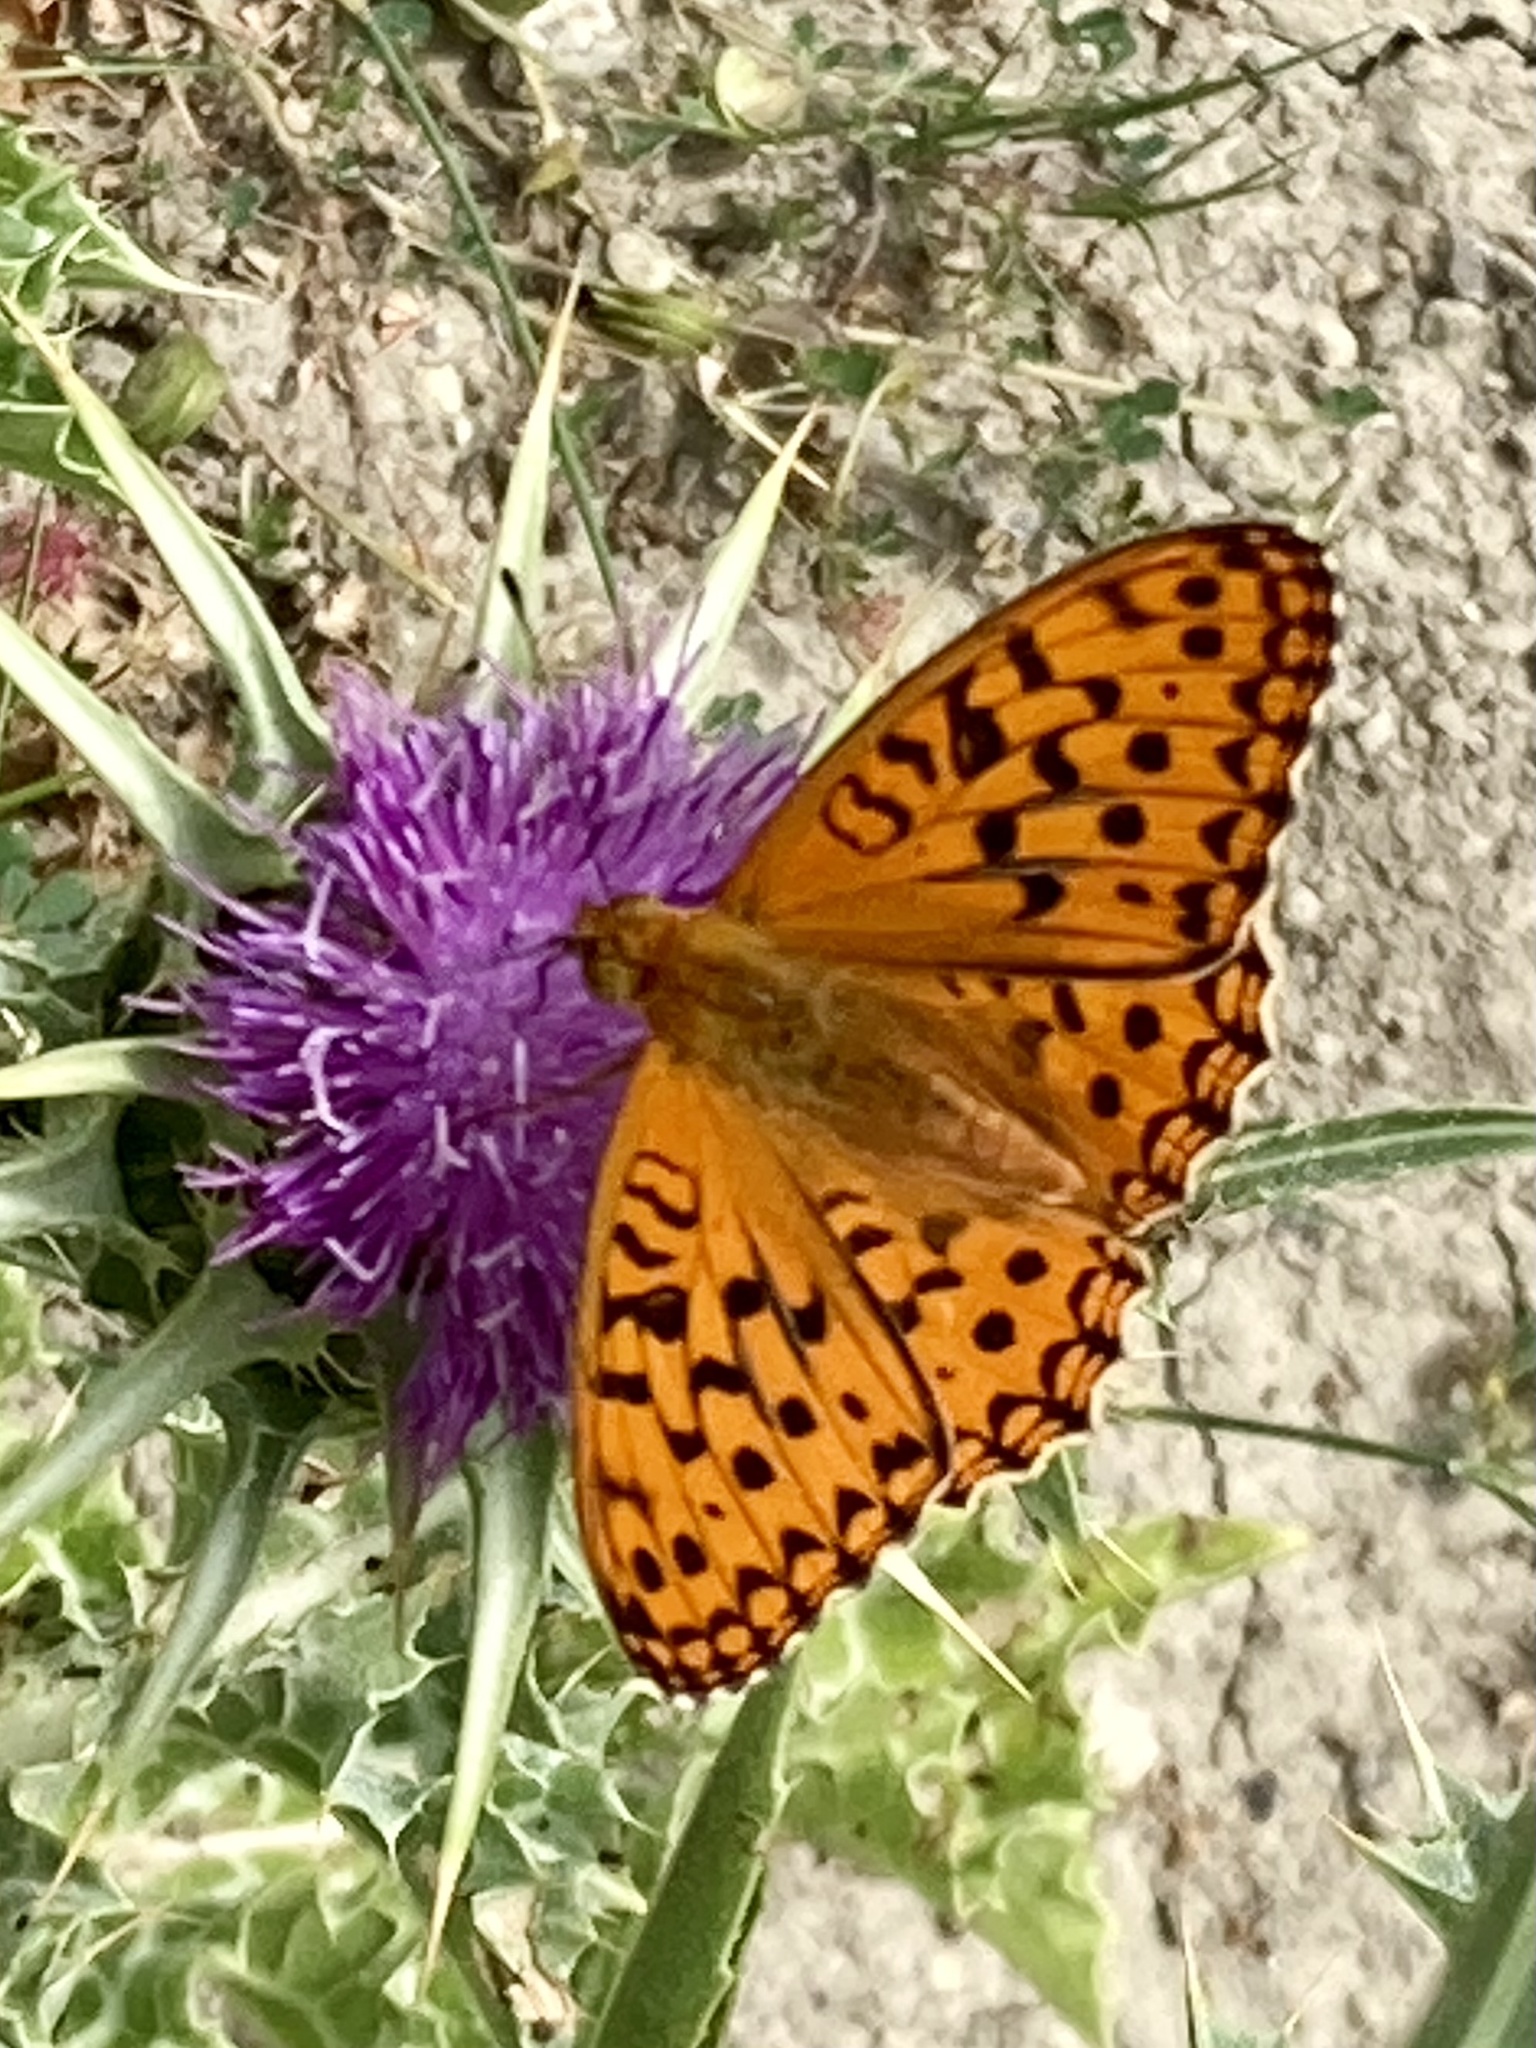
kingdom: Animalia
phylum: Arthropoda
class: Insecta
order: Lepidoptera
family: Nymphalidae
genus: Fabriciana
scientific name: Fabriciana adippe
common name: High brown fritillary
